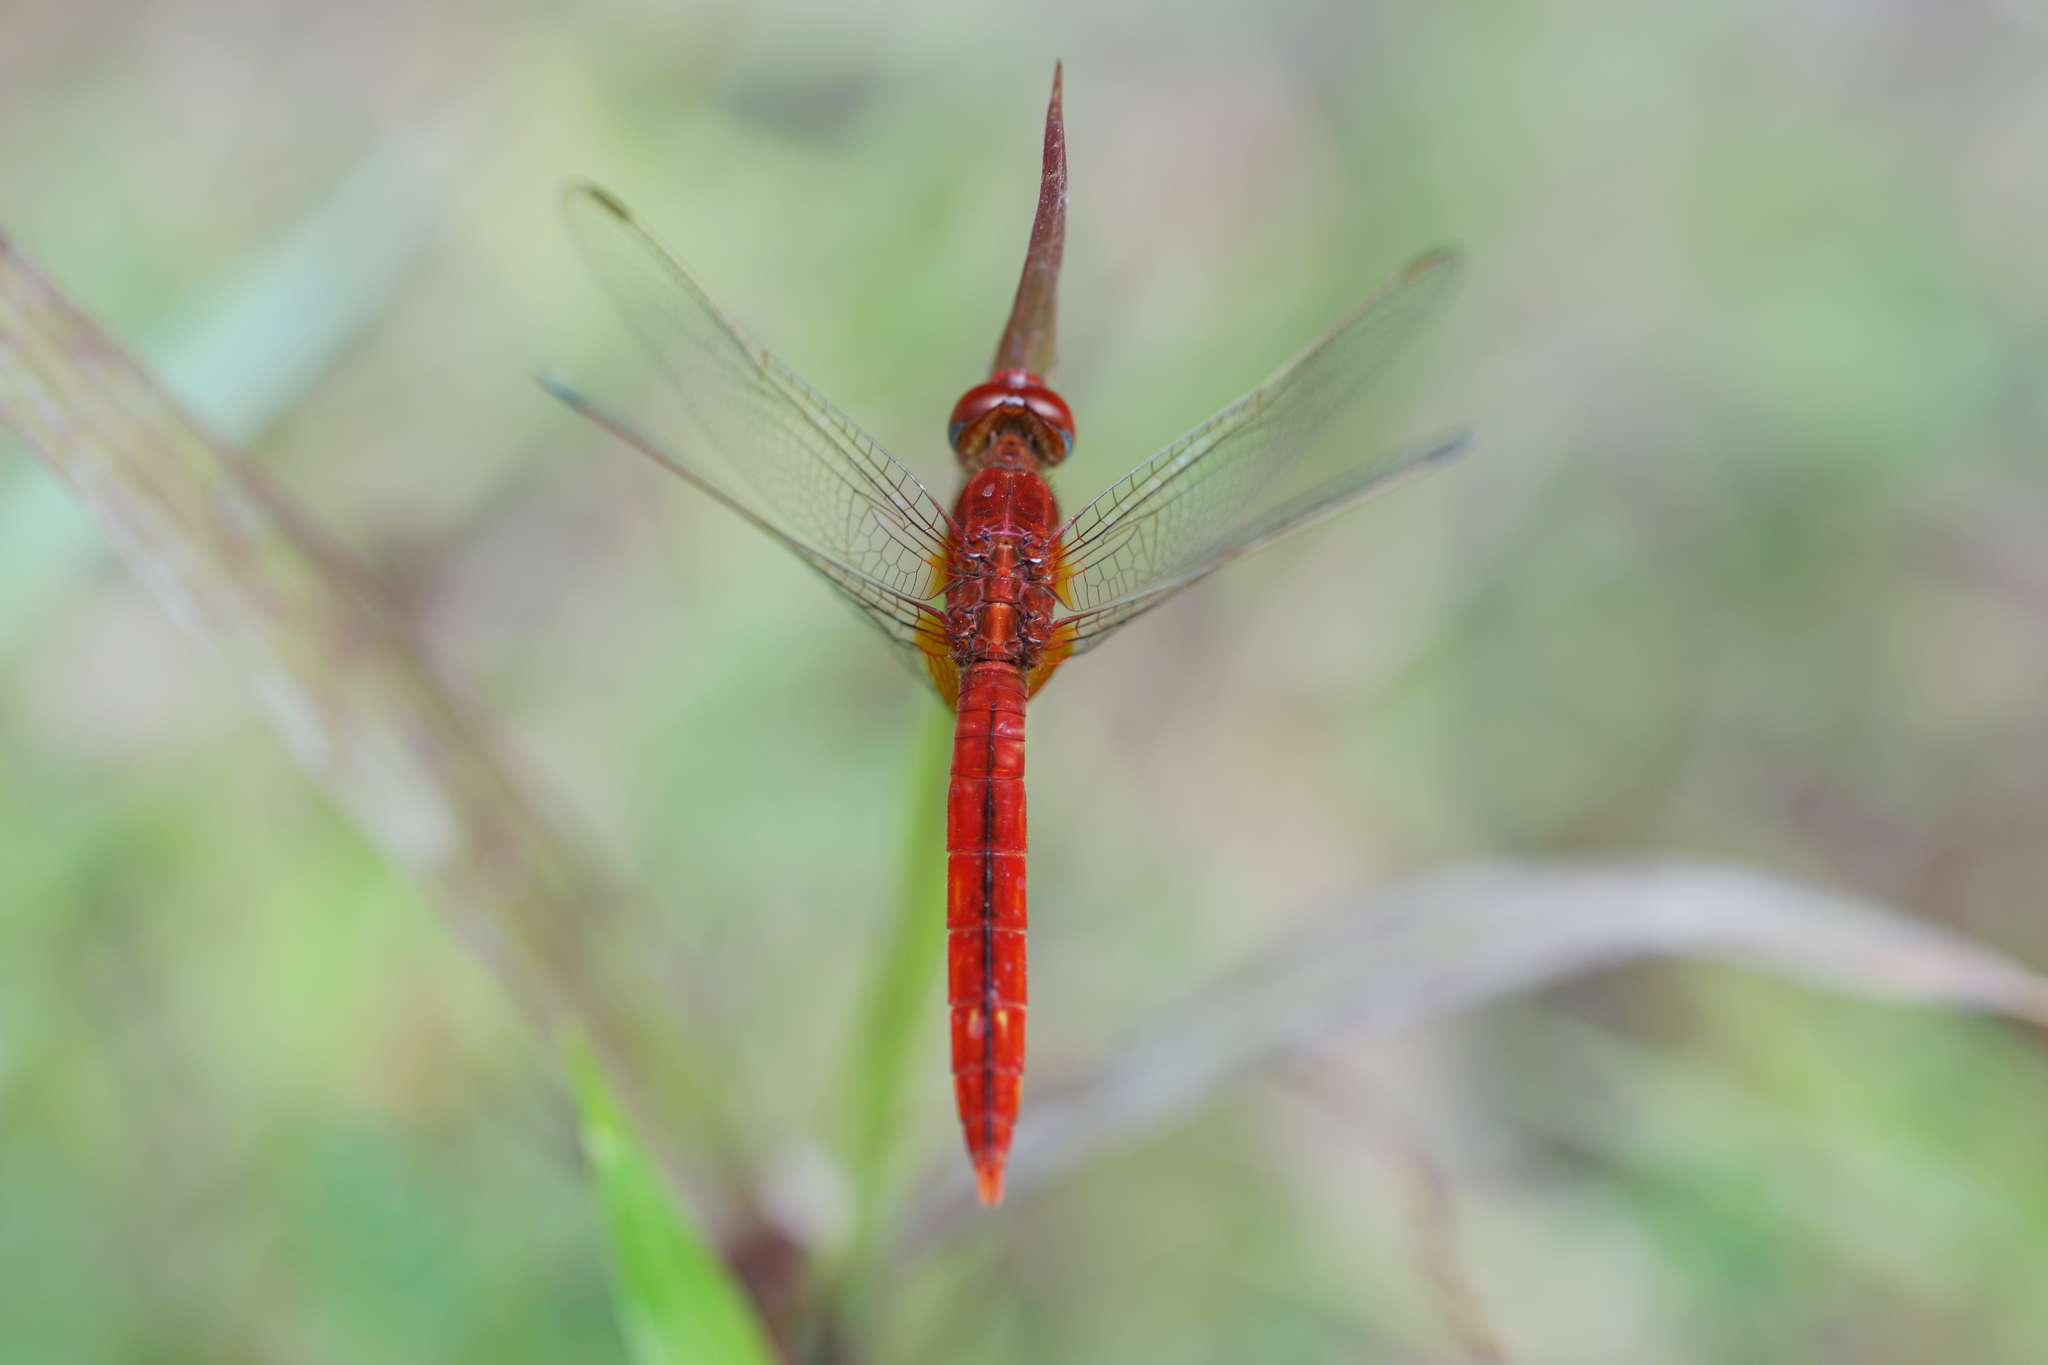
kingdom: Animalia
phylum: Arthropoda
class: Insecta
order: Odonata
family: Libellulidae
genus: Crocothemis
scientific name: Crocothemis servilia
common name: Scarlet skimmer
